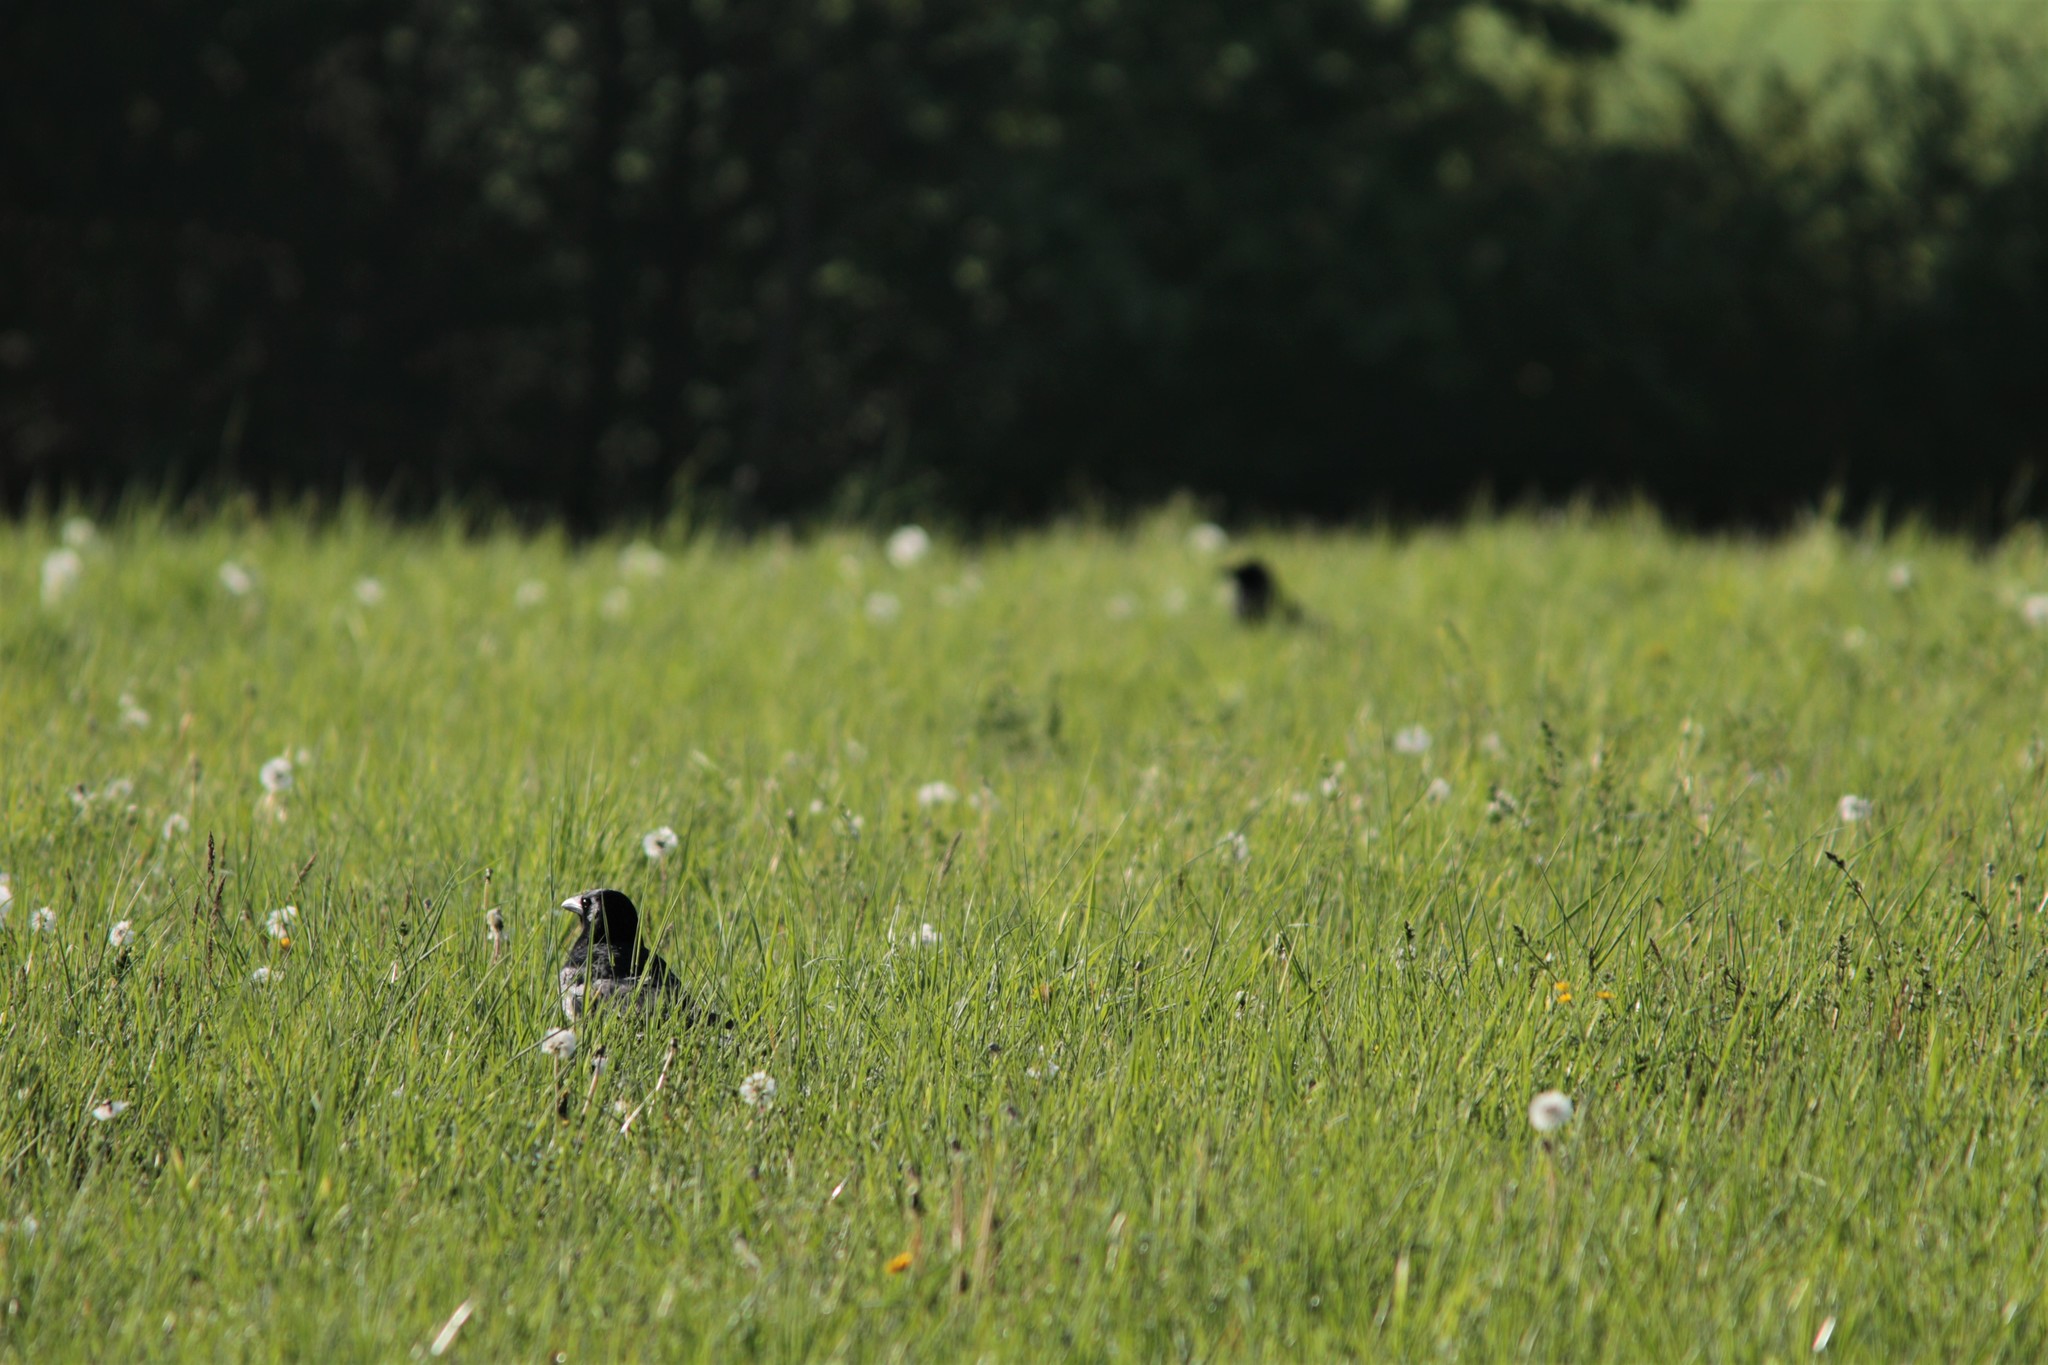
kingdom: Animalia
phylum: Chordata
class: Aves
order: Passeriformes
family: Corvidae
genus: Corvus
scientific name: Corvus corone
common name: Carrion crow
